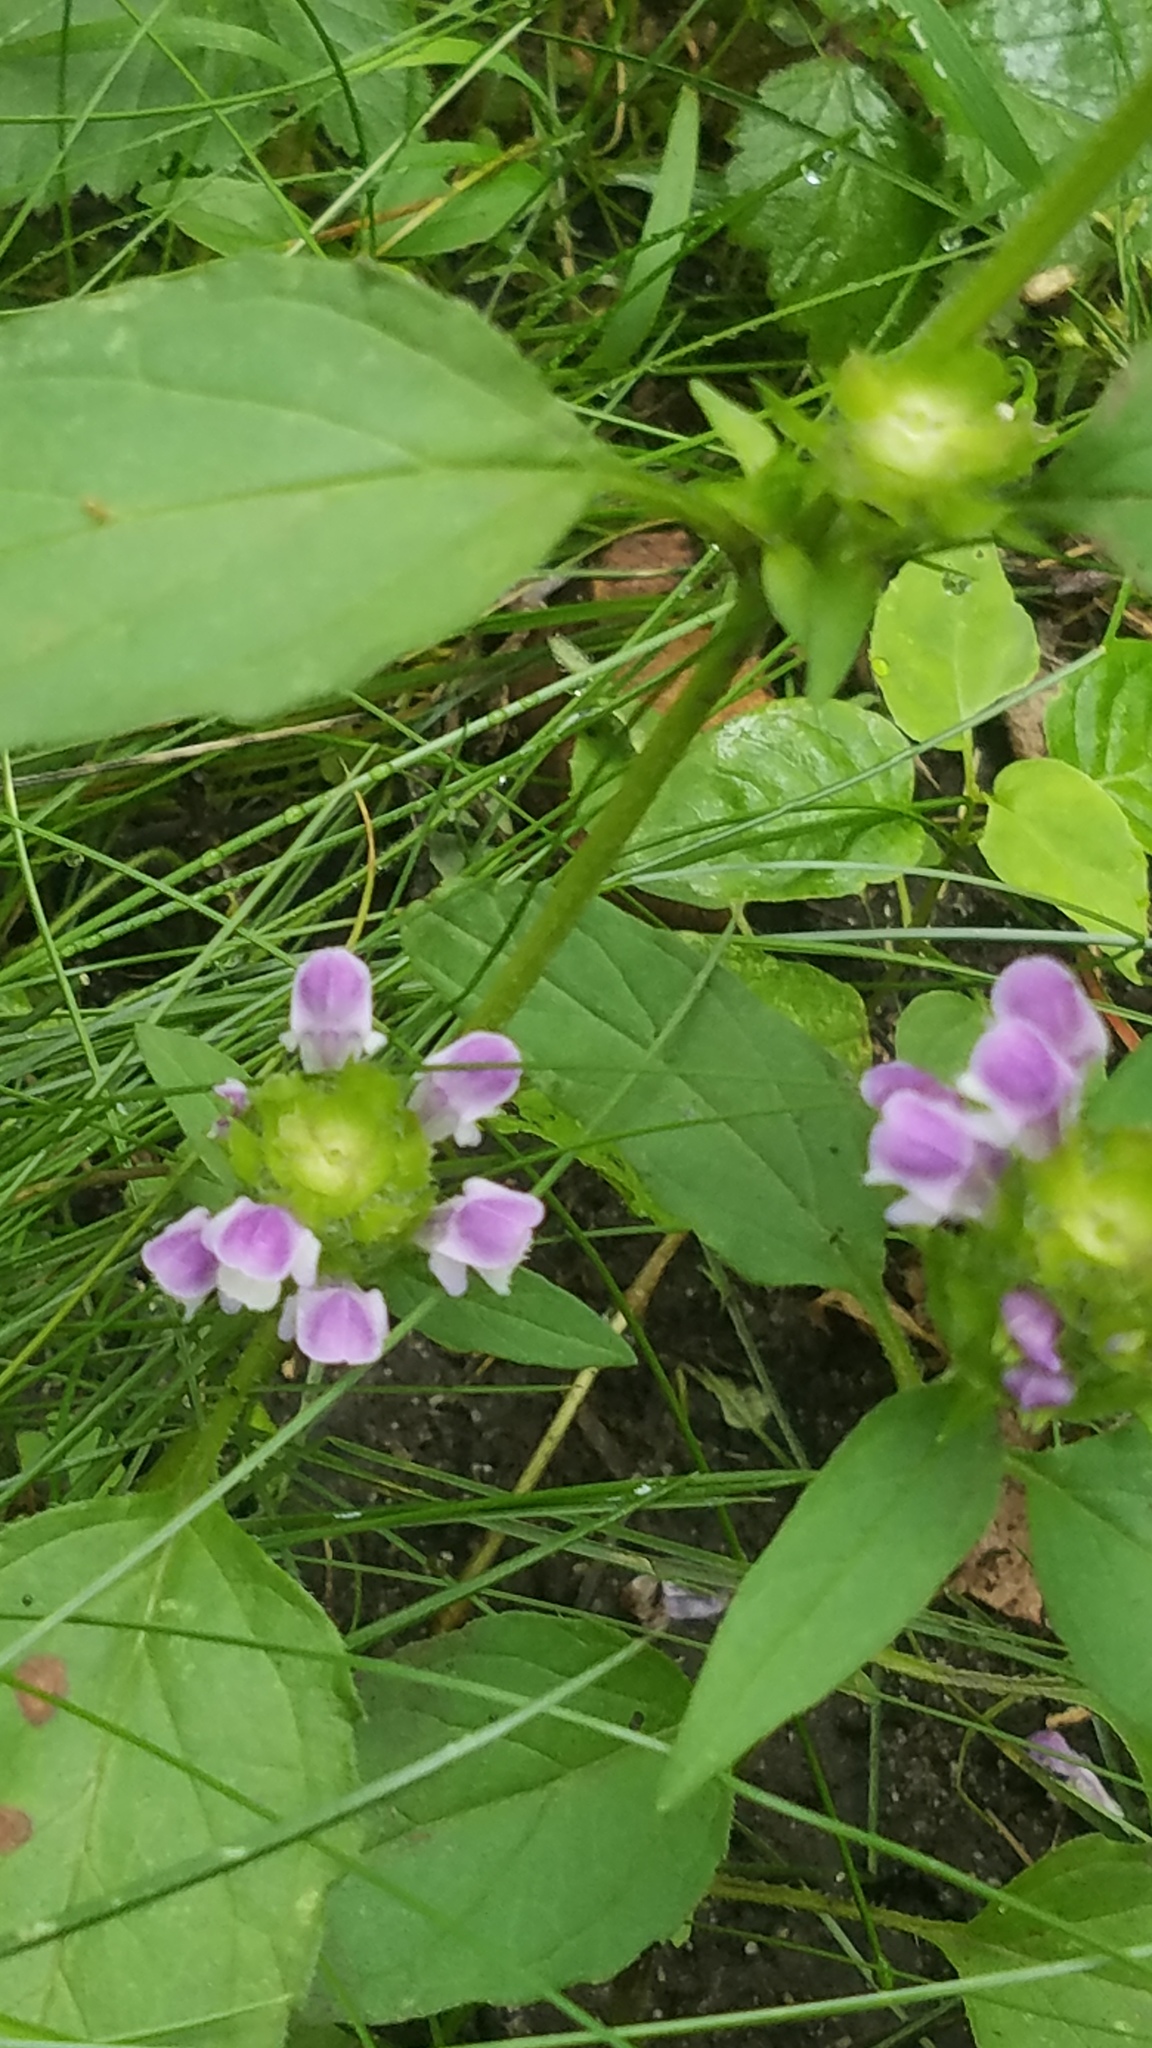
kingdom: Plantae
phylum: Tracheophyta
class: Magnoliopsida
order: Lamiales
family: Lamiaceae
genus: Prunella
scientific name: Prunella vulgaris
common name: Heal-all
